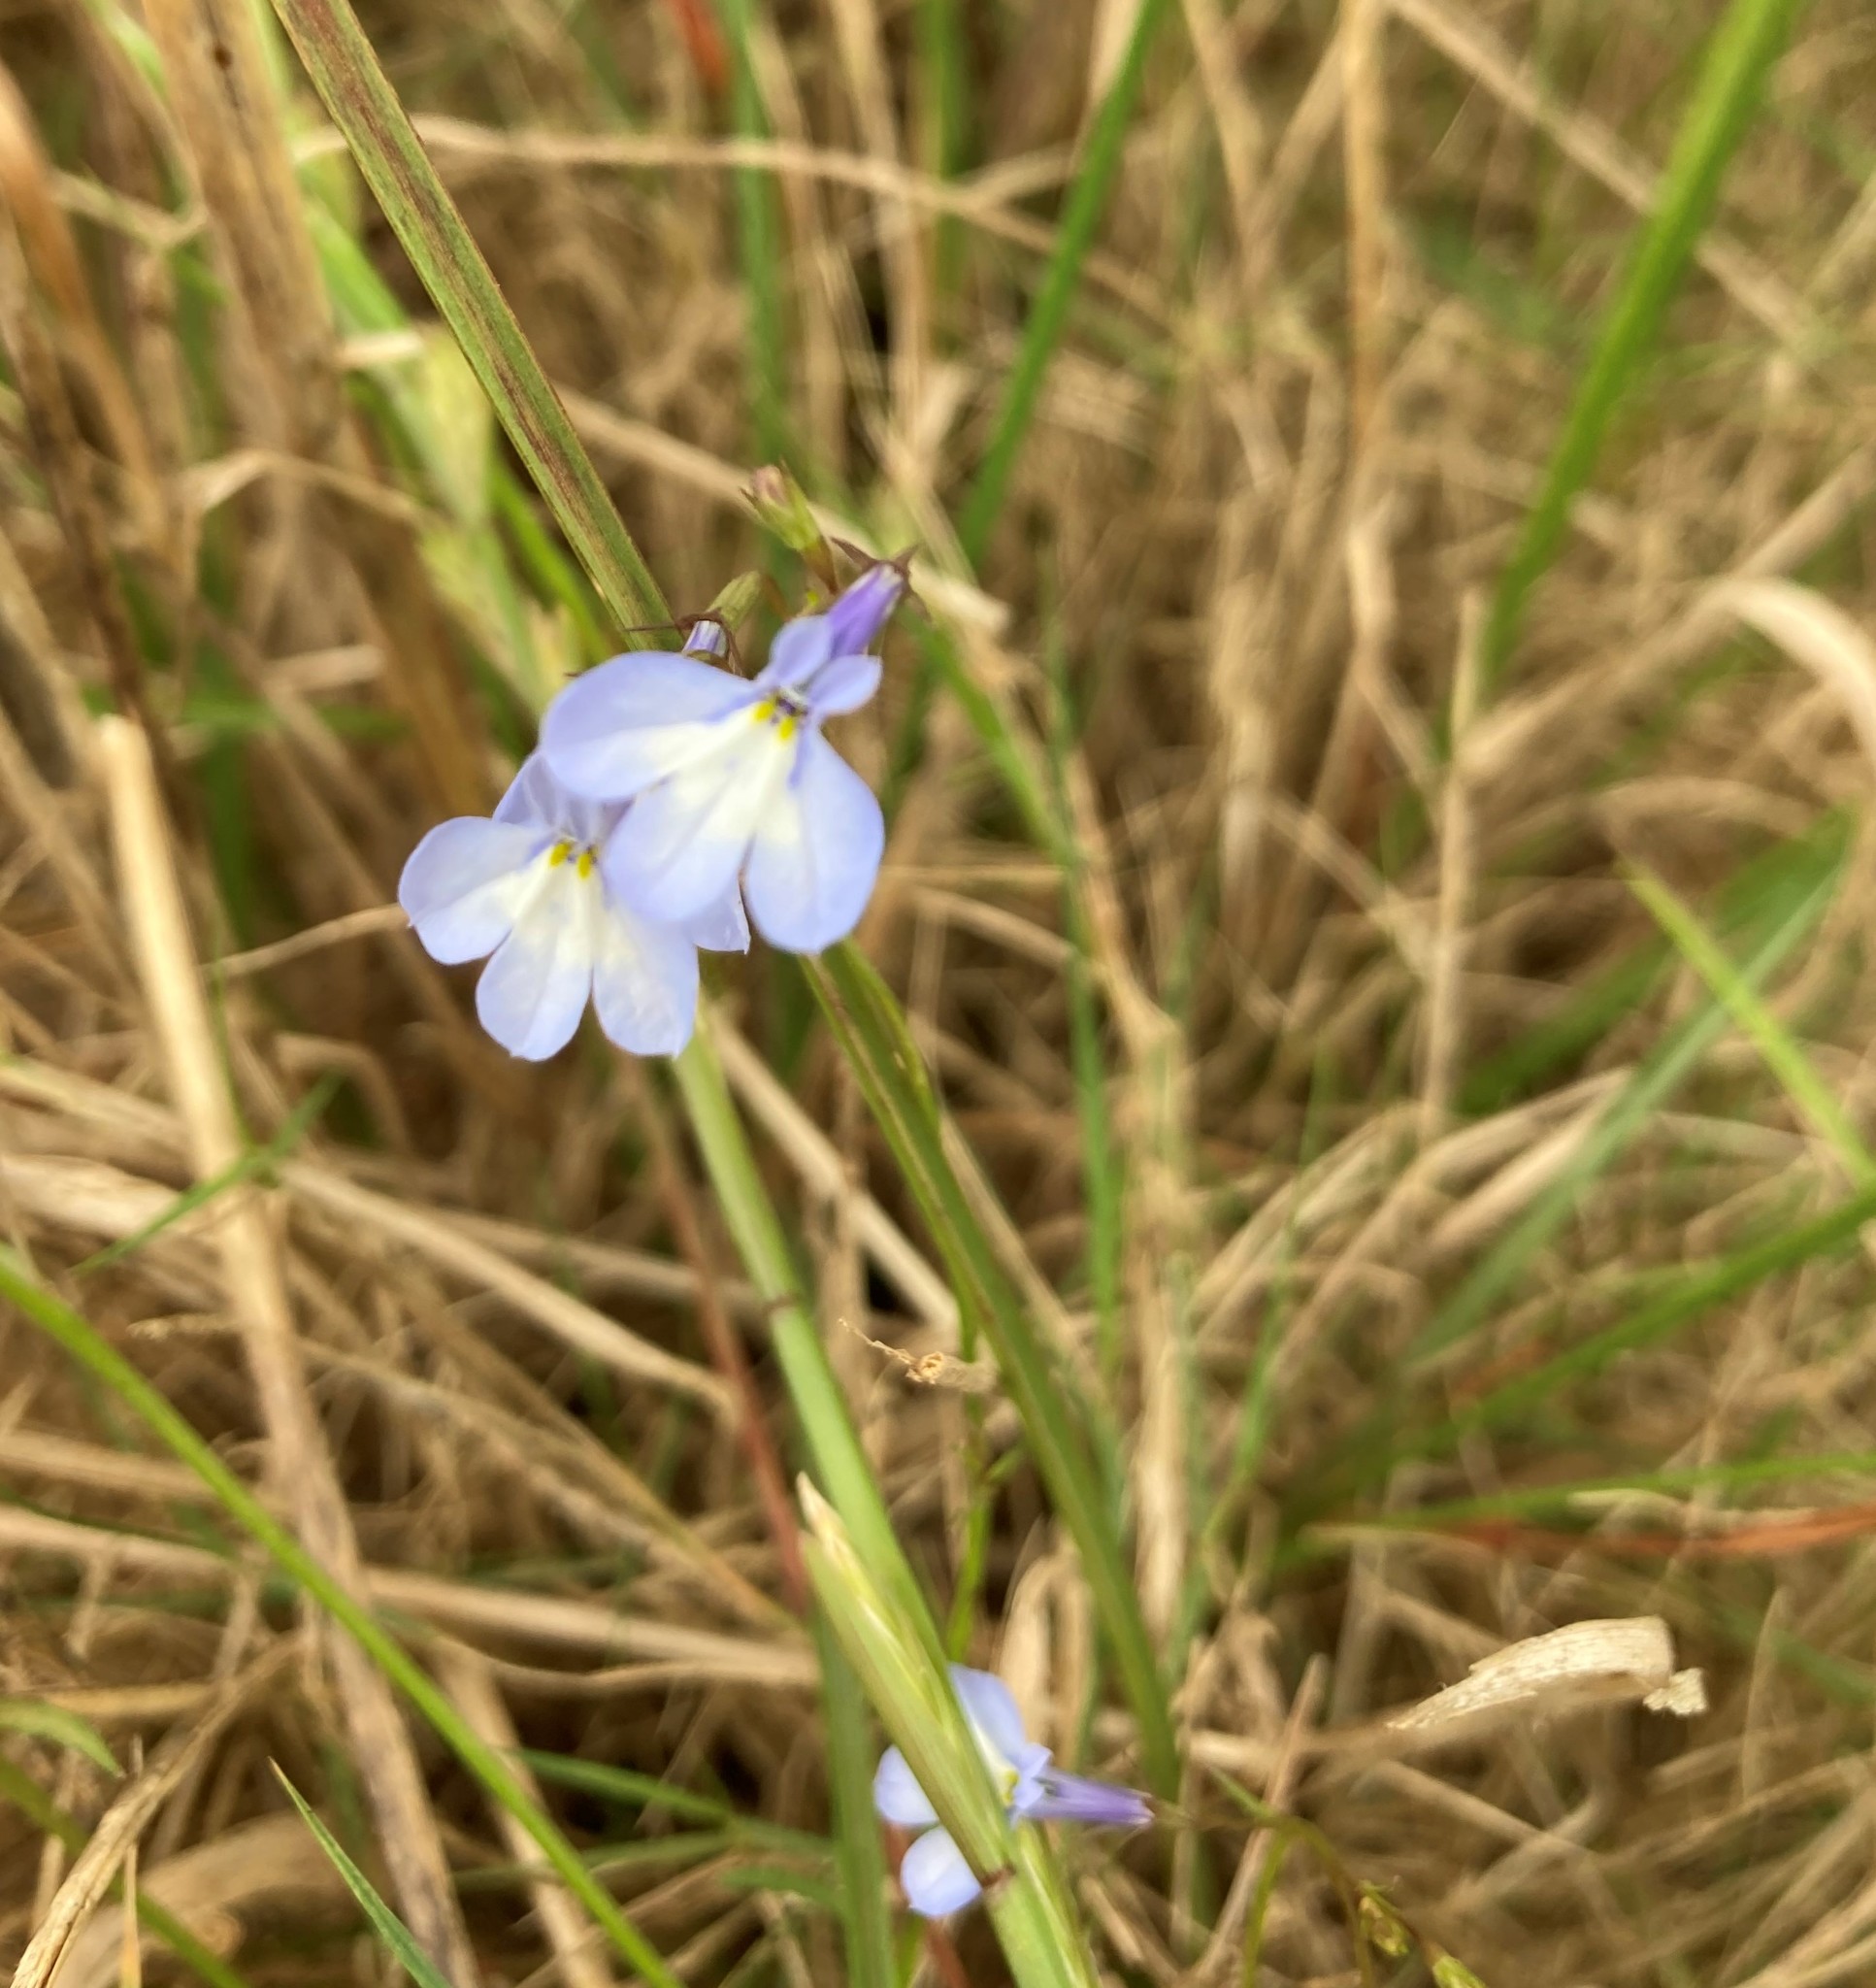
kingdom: Plantae
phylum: Tracheophyta
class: Magnoliopsida
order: Asterales
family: Campanulaceae
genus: Lobelia
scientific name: Lobelia erinus
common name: Edging lobelia
